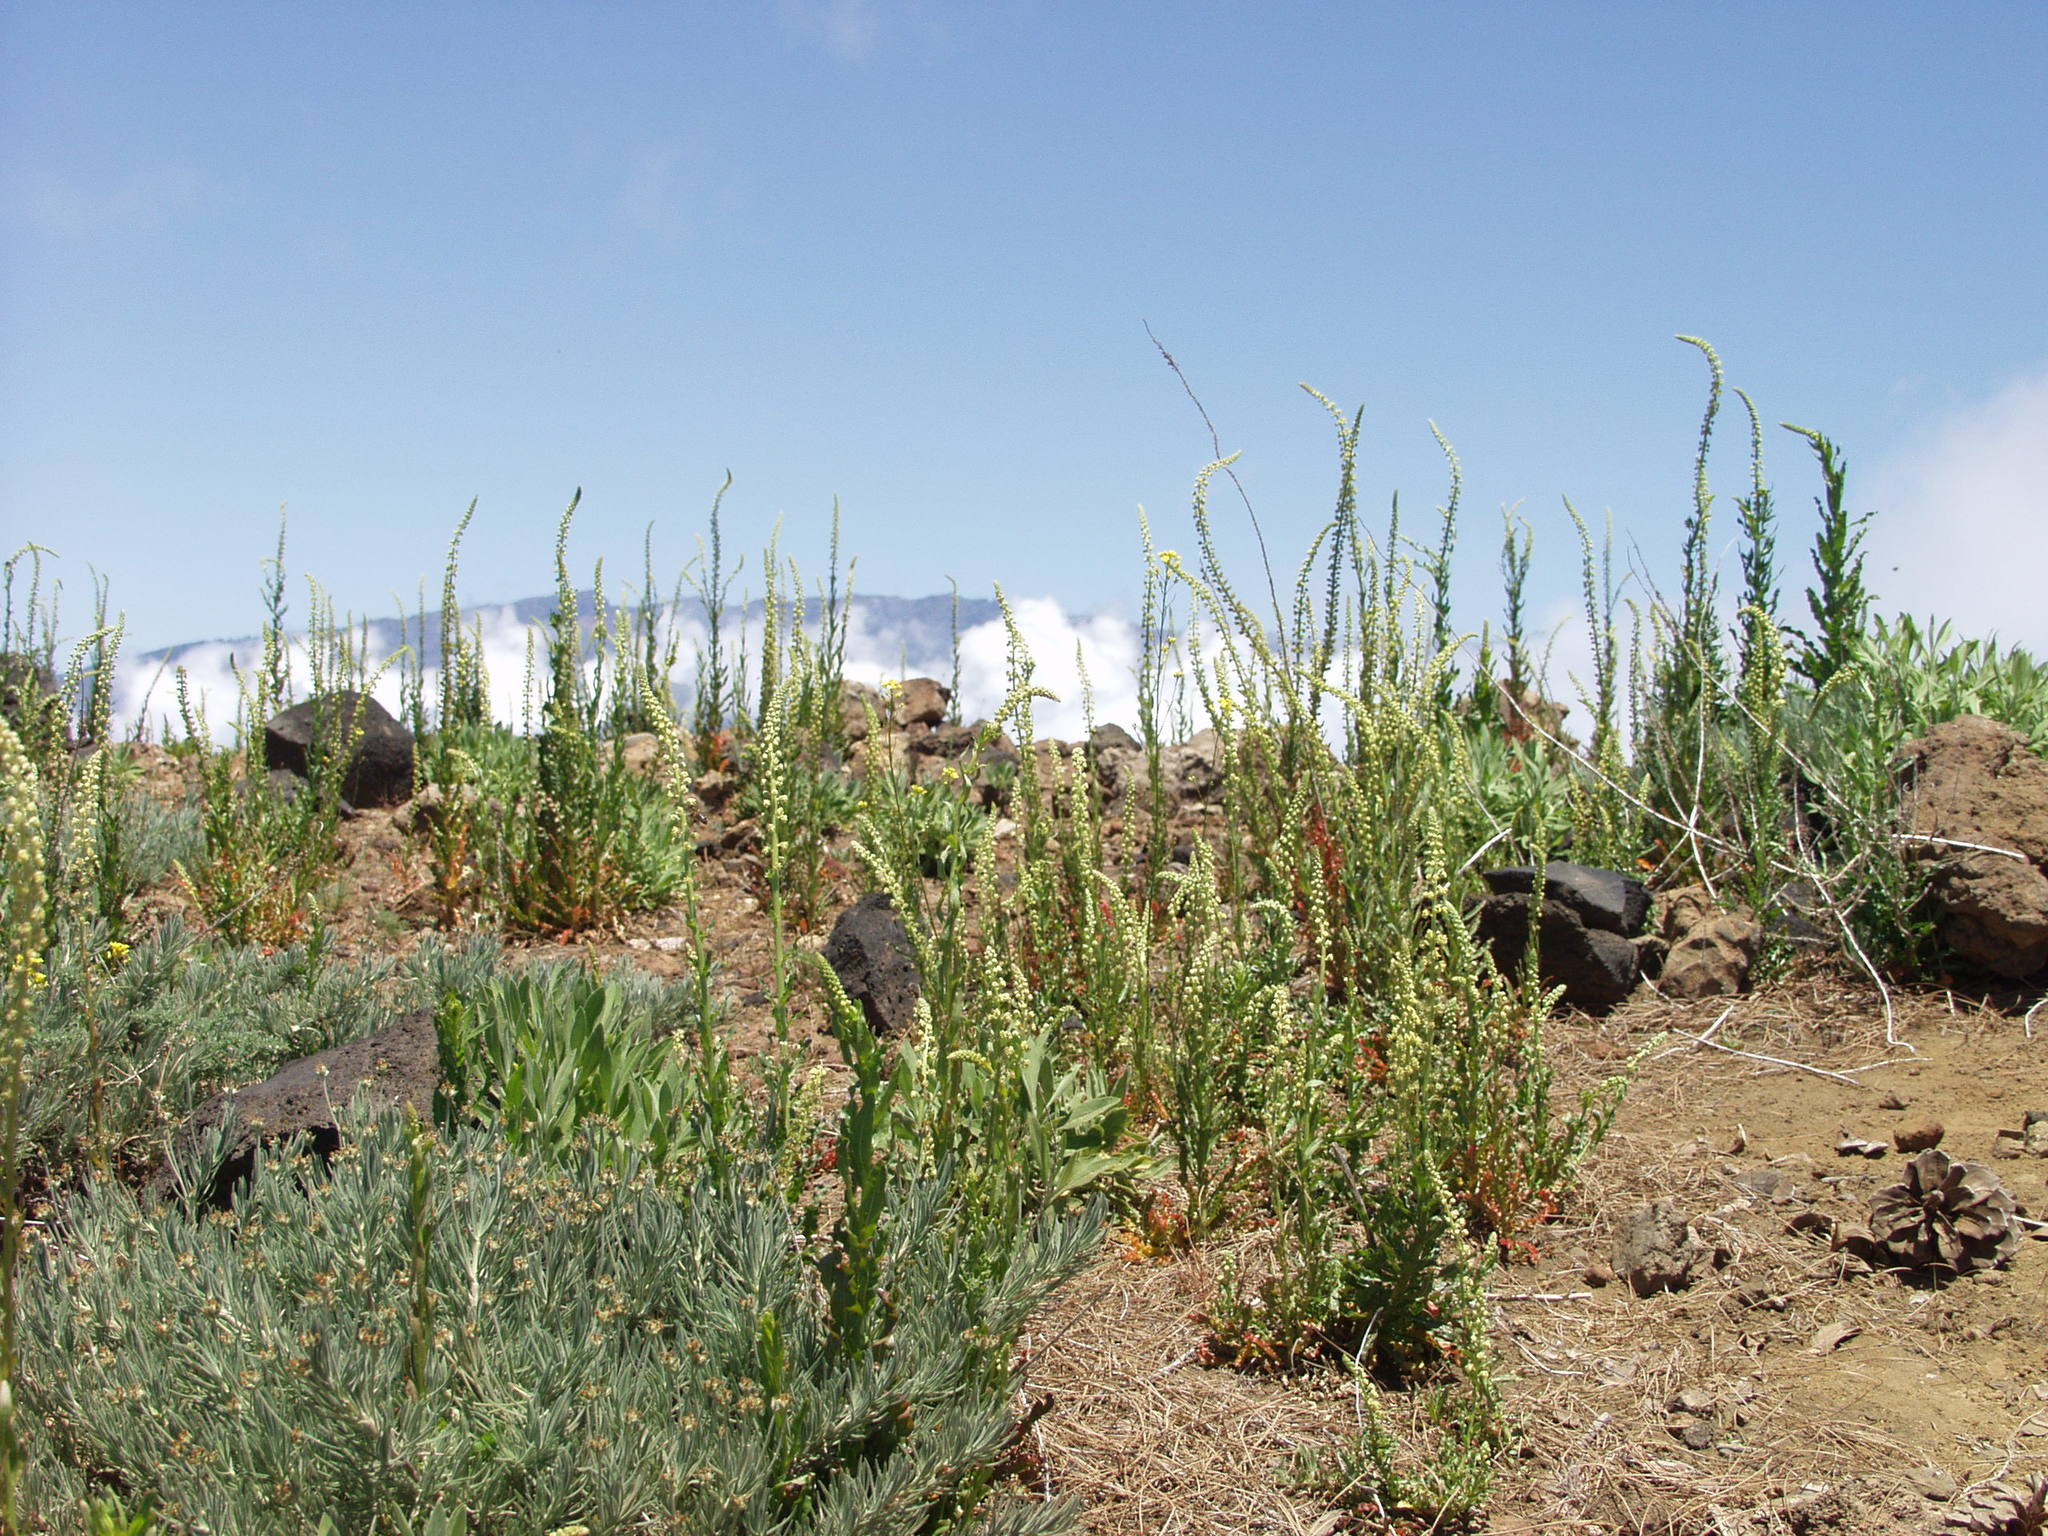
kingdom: Plantae
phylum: Tracheophyta
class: Magnoliopsida
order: Brassicales
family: Resedaceae
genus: Reseda
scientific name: Reseda luteola
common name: Weld
